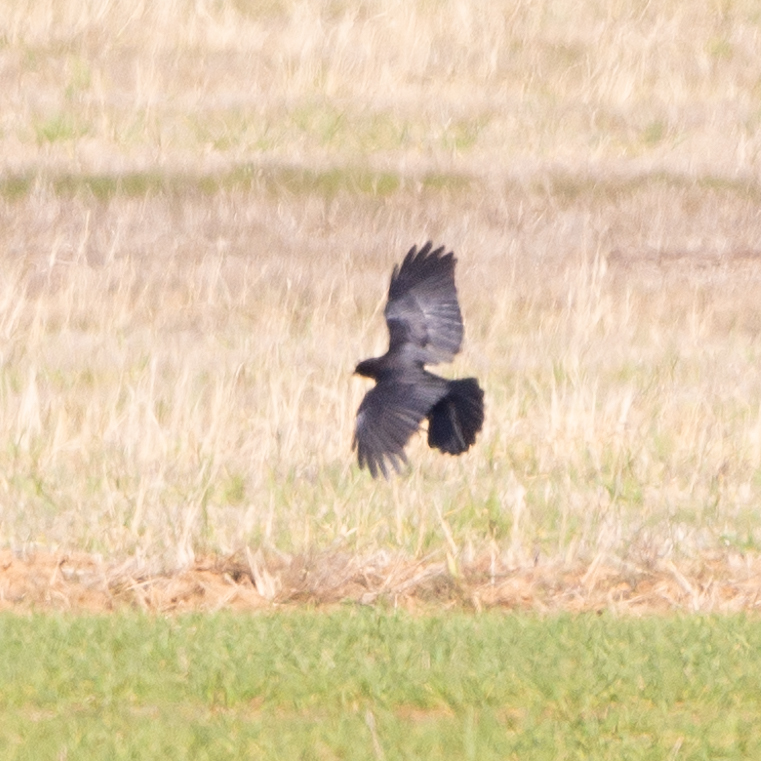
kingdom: Animalia
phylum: Chordata
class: Aves
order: Passeriformes
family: Corvidae
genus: Corvus
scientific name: Corvus corone
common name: Carrion crow
